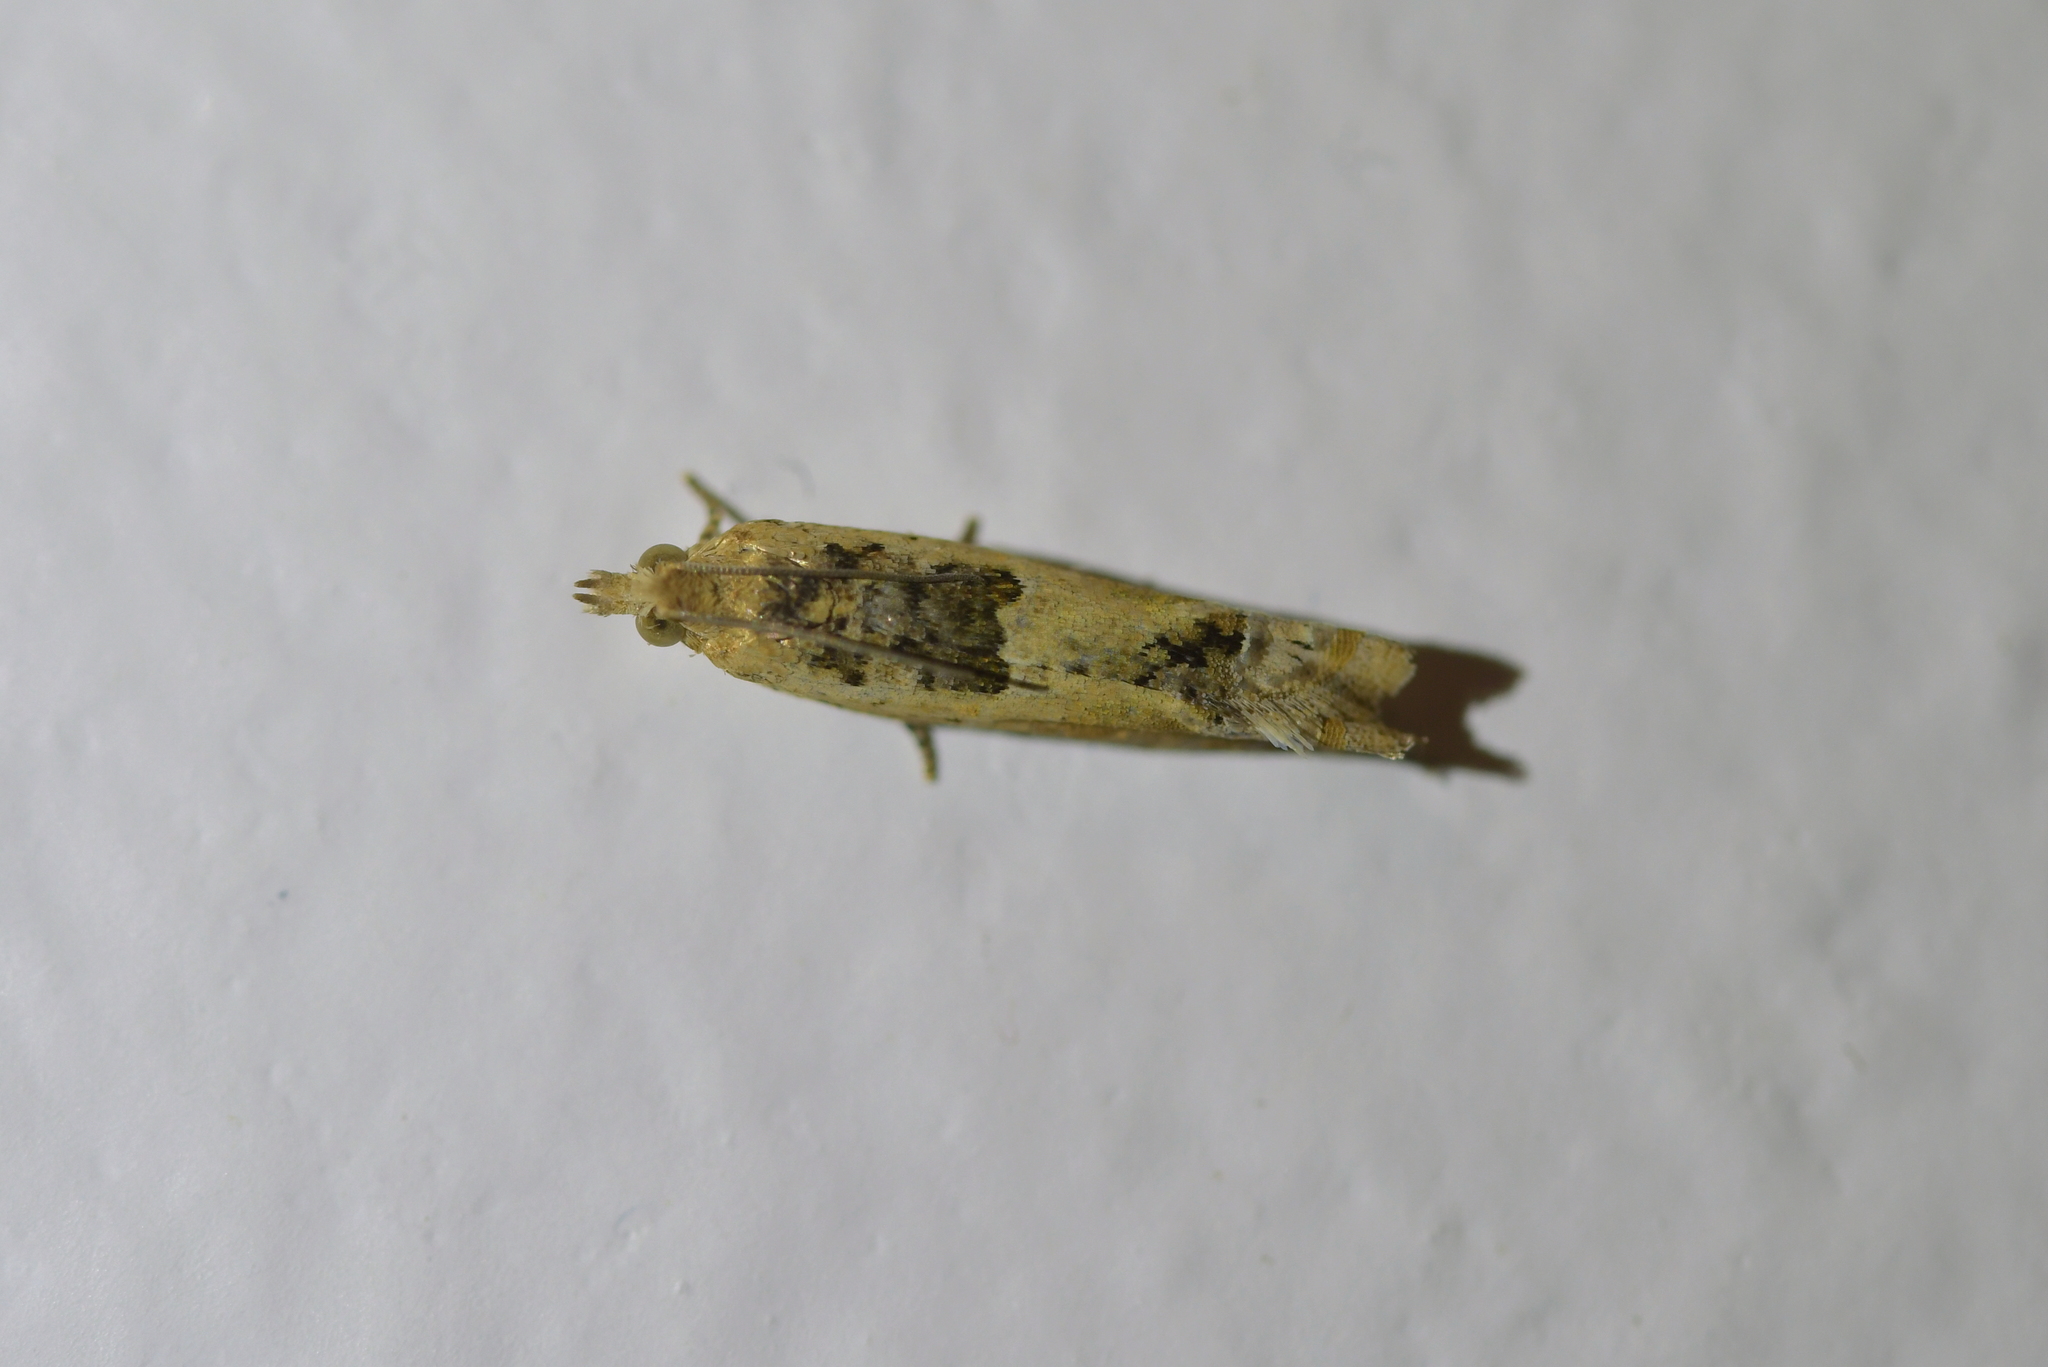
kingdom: Animalia
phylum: Arthropoda
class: Insecta
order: Lepidoptera
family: Tortricidae
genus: Crocidosema
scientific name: Crocidosema plebejana
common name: Southern bell
